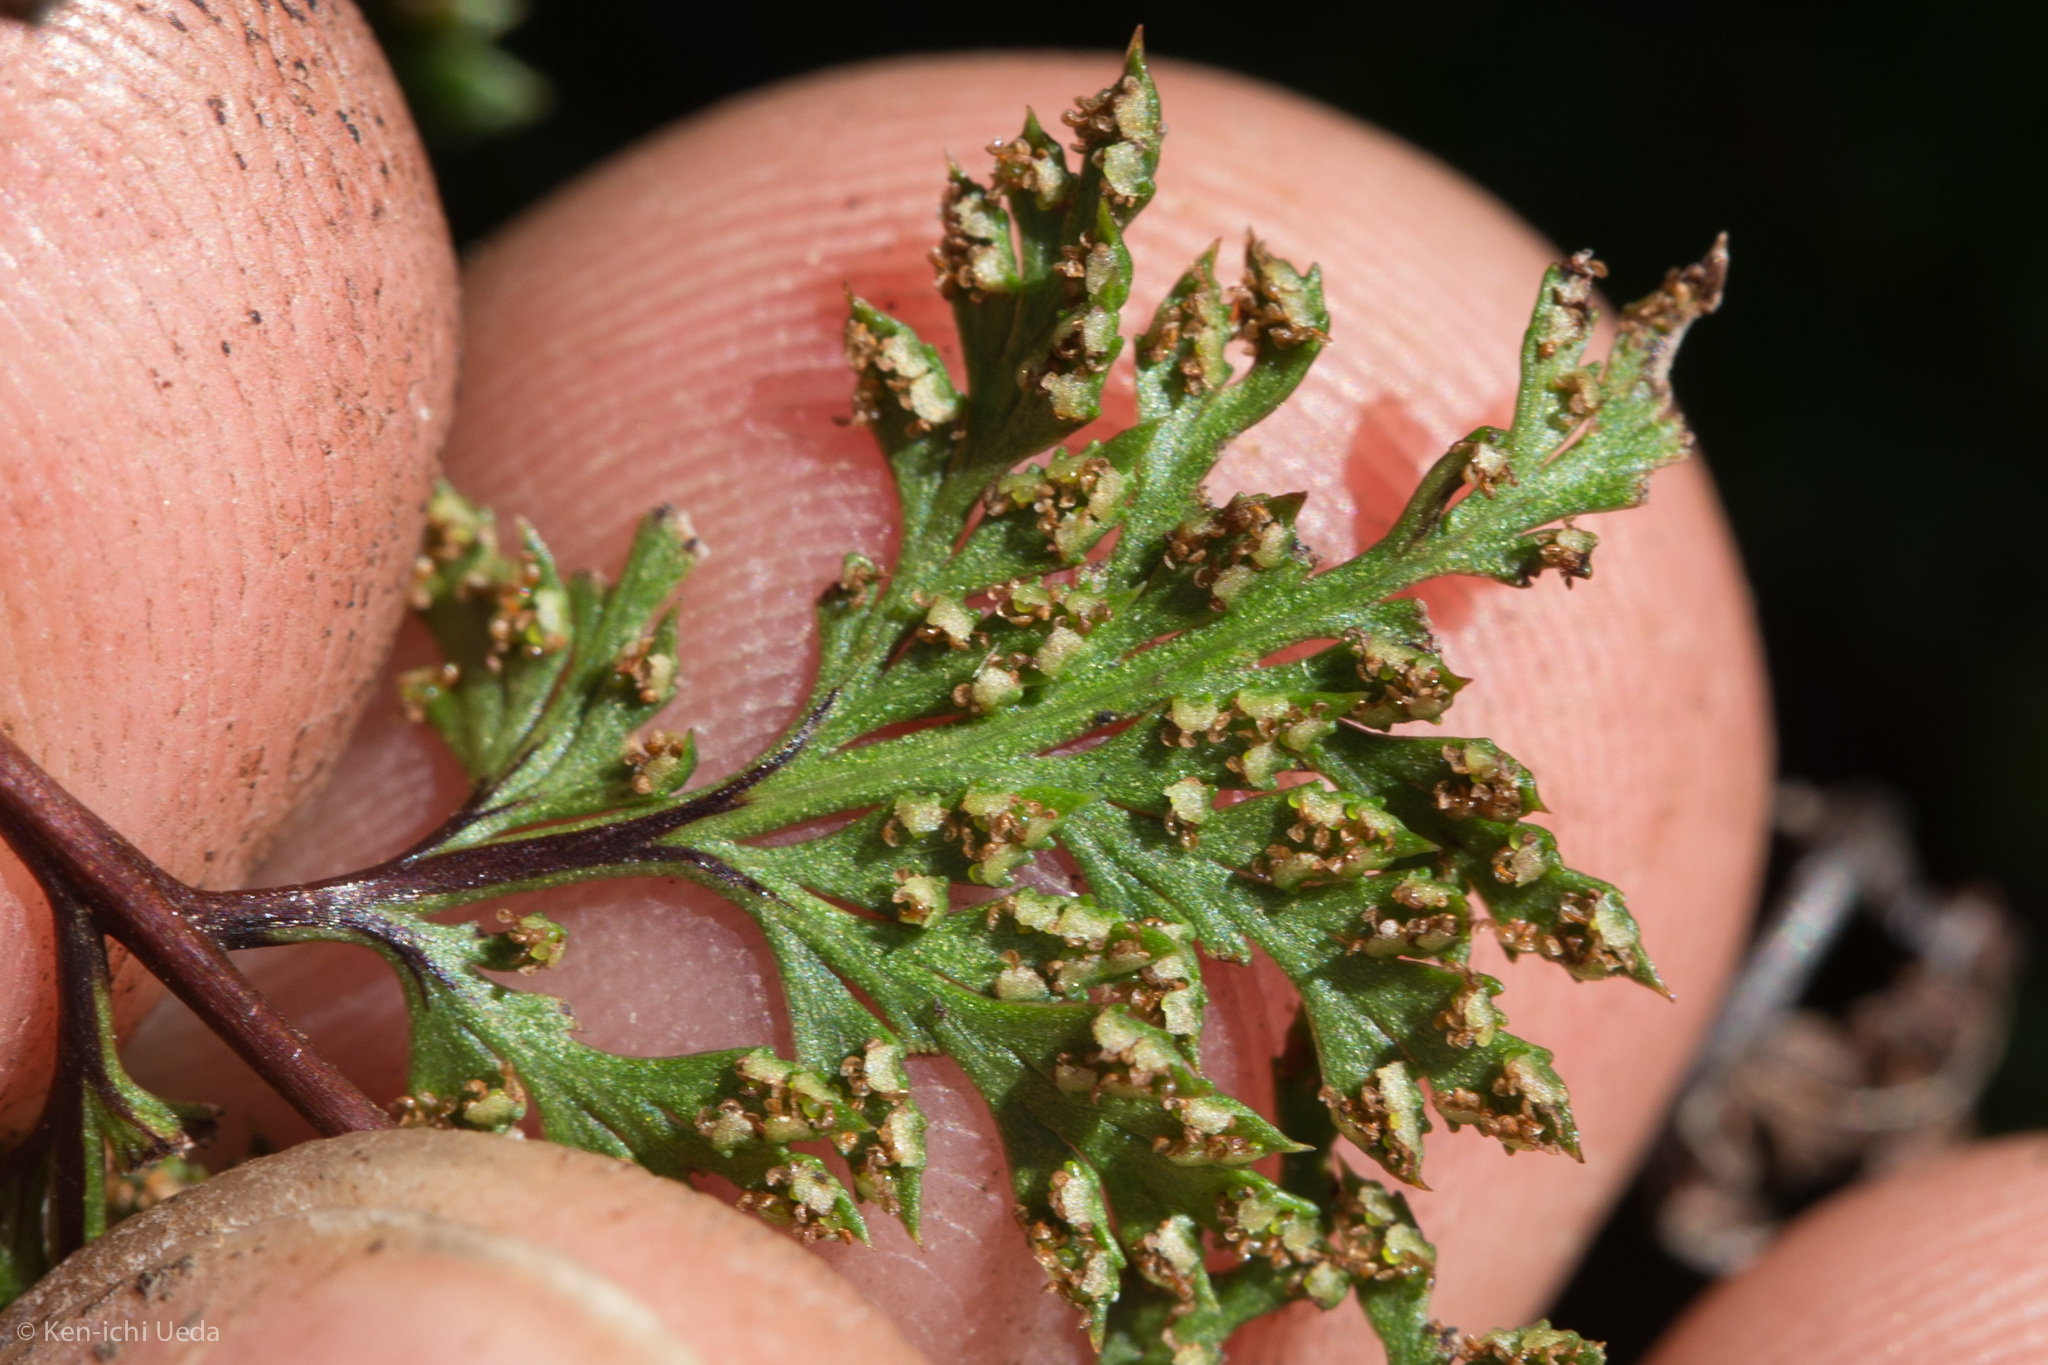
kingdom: Plantae
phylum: Tracheophyta
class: Polypodiopsida
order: Polypodiales
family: Pteridaceae
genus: Aspidotis
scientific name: Aspidotis californica
